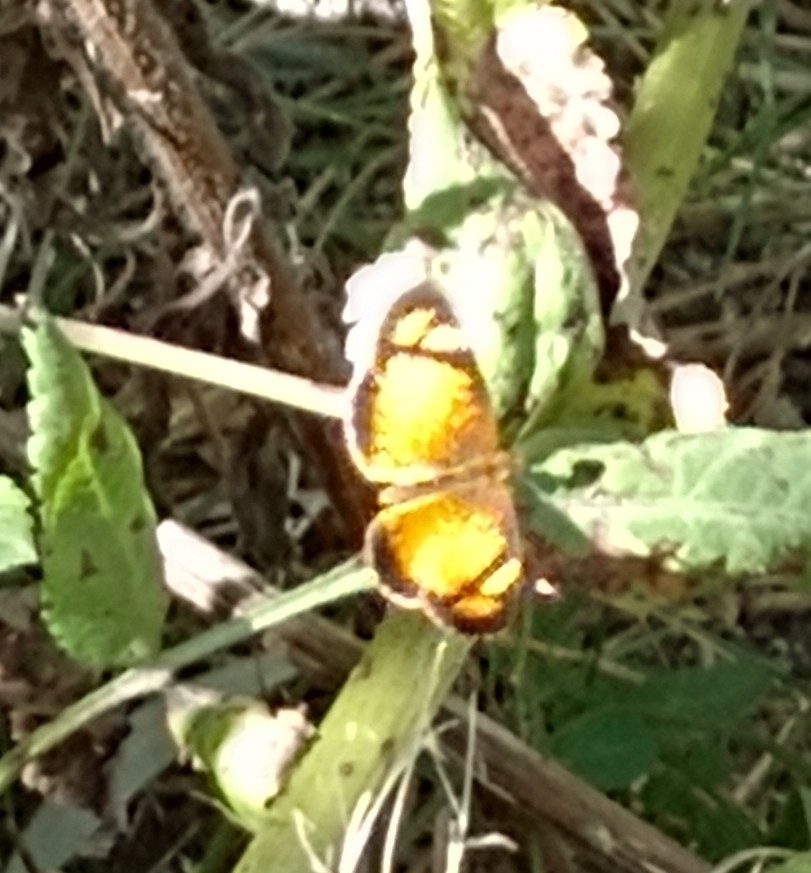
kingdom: Animalia
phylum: Arthropoda
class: Insecta
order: Lepidoptera
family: Nymphalidae
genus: Tegosa
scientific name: Tegosa claudina
